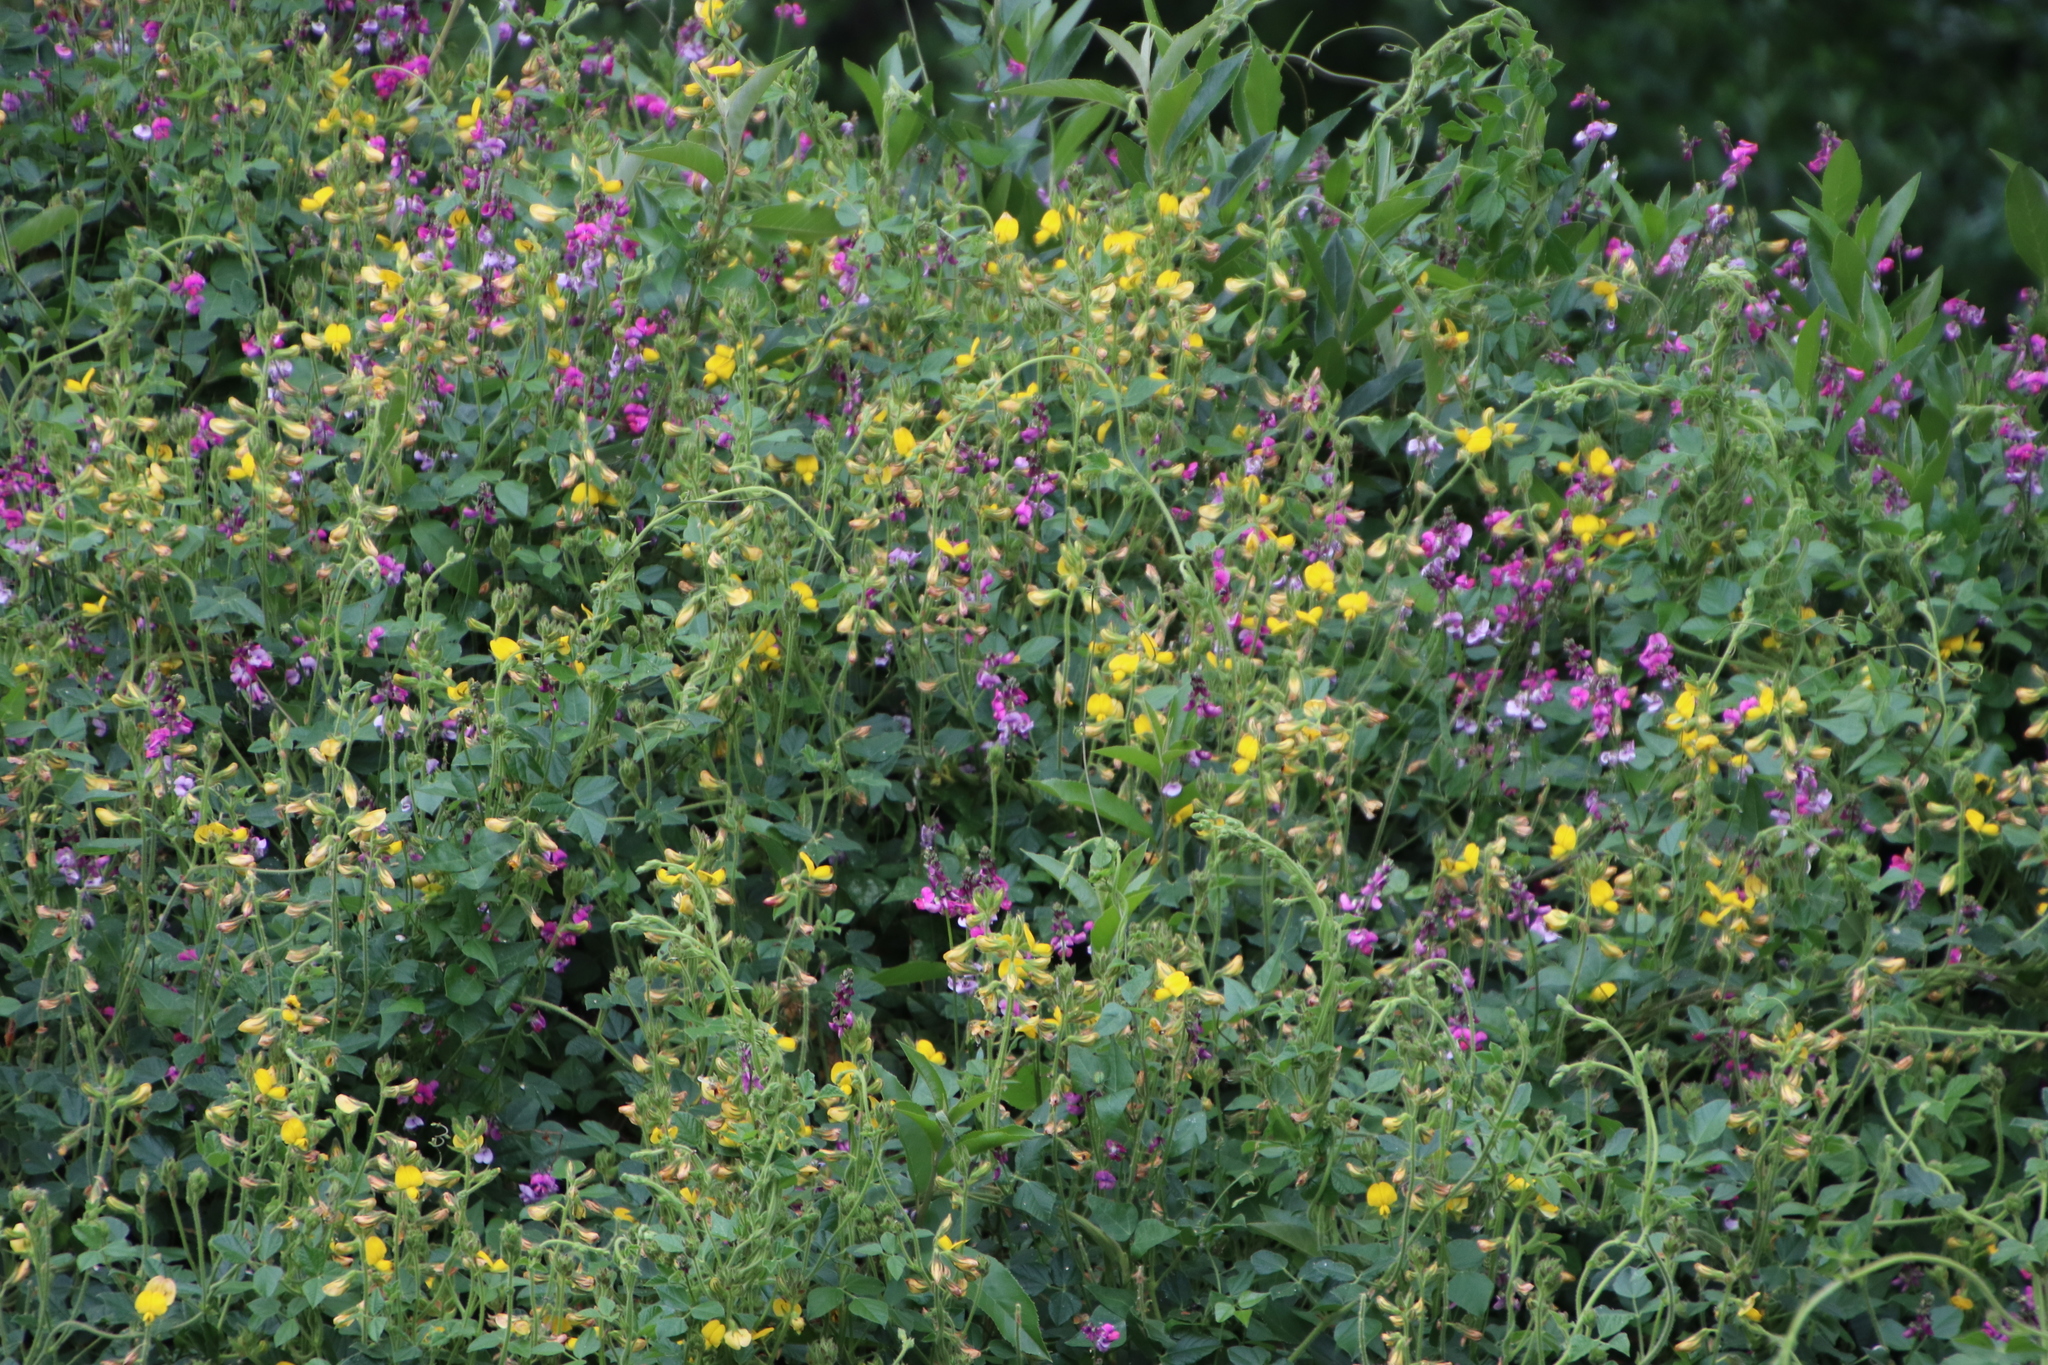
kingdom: Plantae
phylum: Tracheophyta
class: Magnoliopsida
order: Fabales
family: Fabaceae
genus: Bolusafra
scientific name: Bolusafra bituminosa
